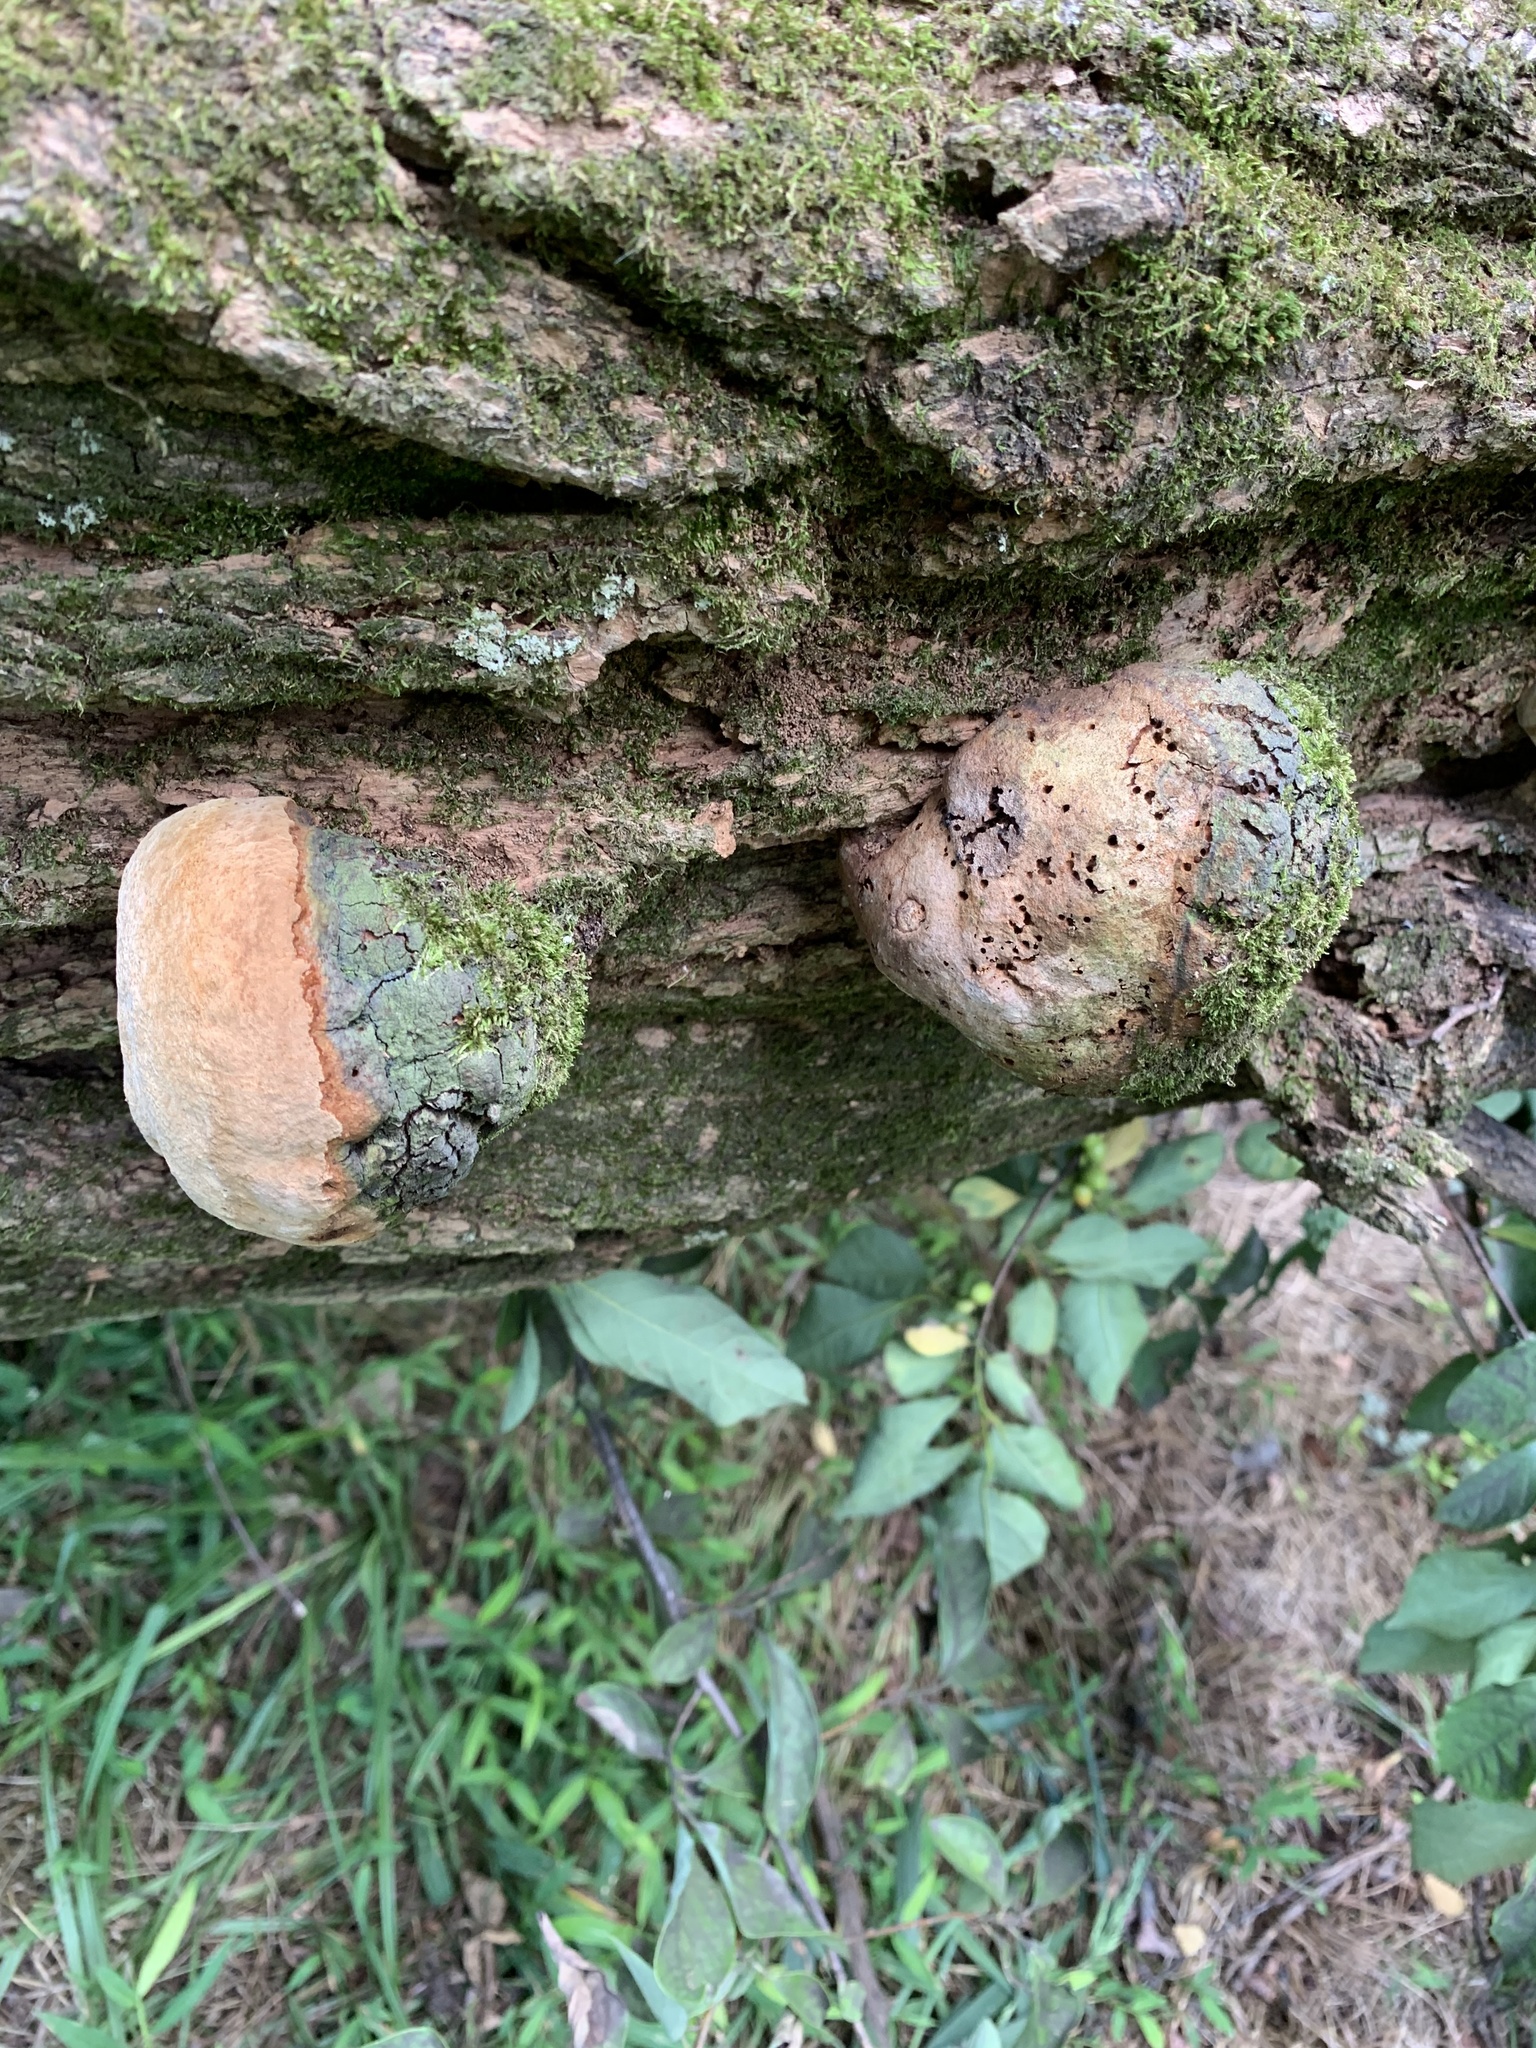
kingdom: Fungi
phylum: Basidiomycota
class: Agaricomycetes
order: Hymenochaetales
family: Hymenochaetaceae
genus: Phellinus
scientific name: Phellinus robiniae
